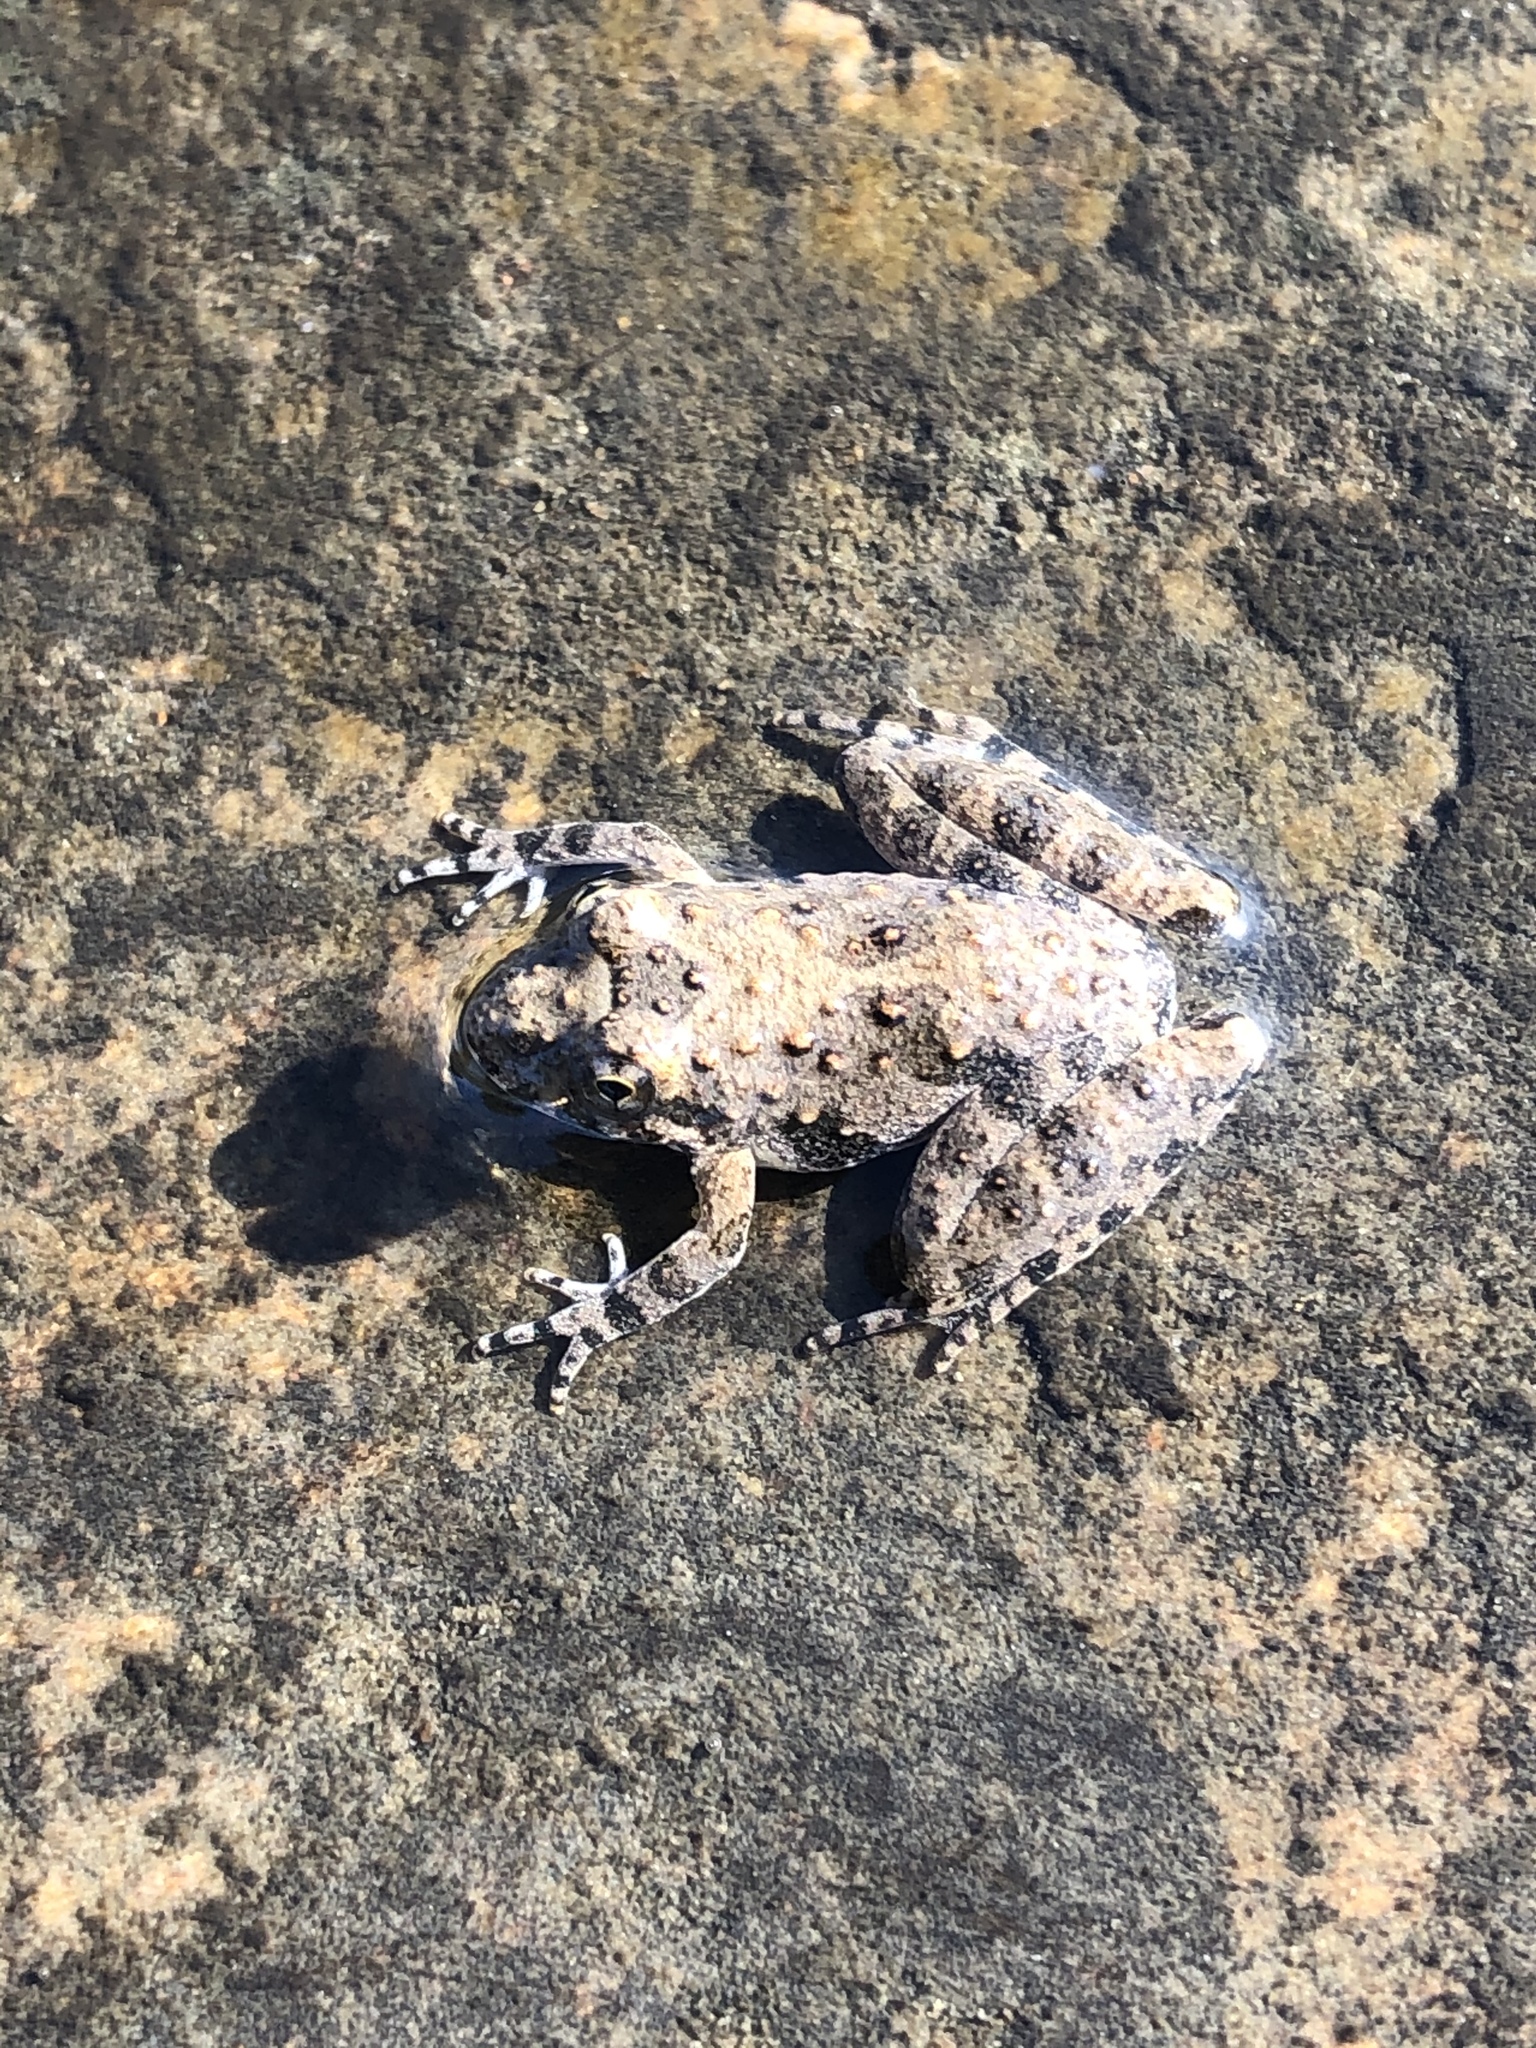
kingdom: Animalia
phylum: Chordata
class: Amphibia
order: Anura
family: Hylidae
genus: Acris
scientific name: Acris blanchardi
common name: Blanchard's cricket frog
